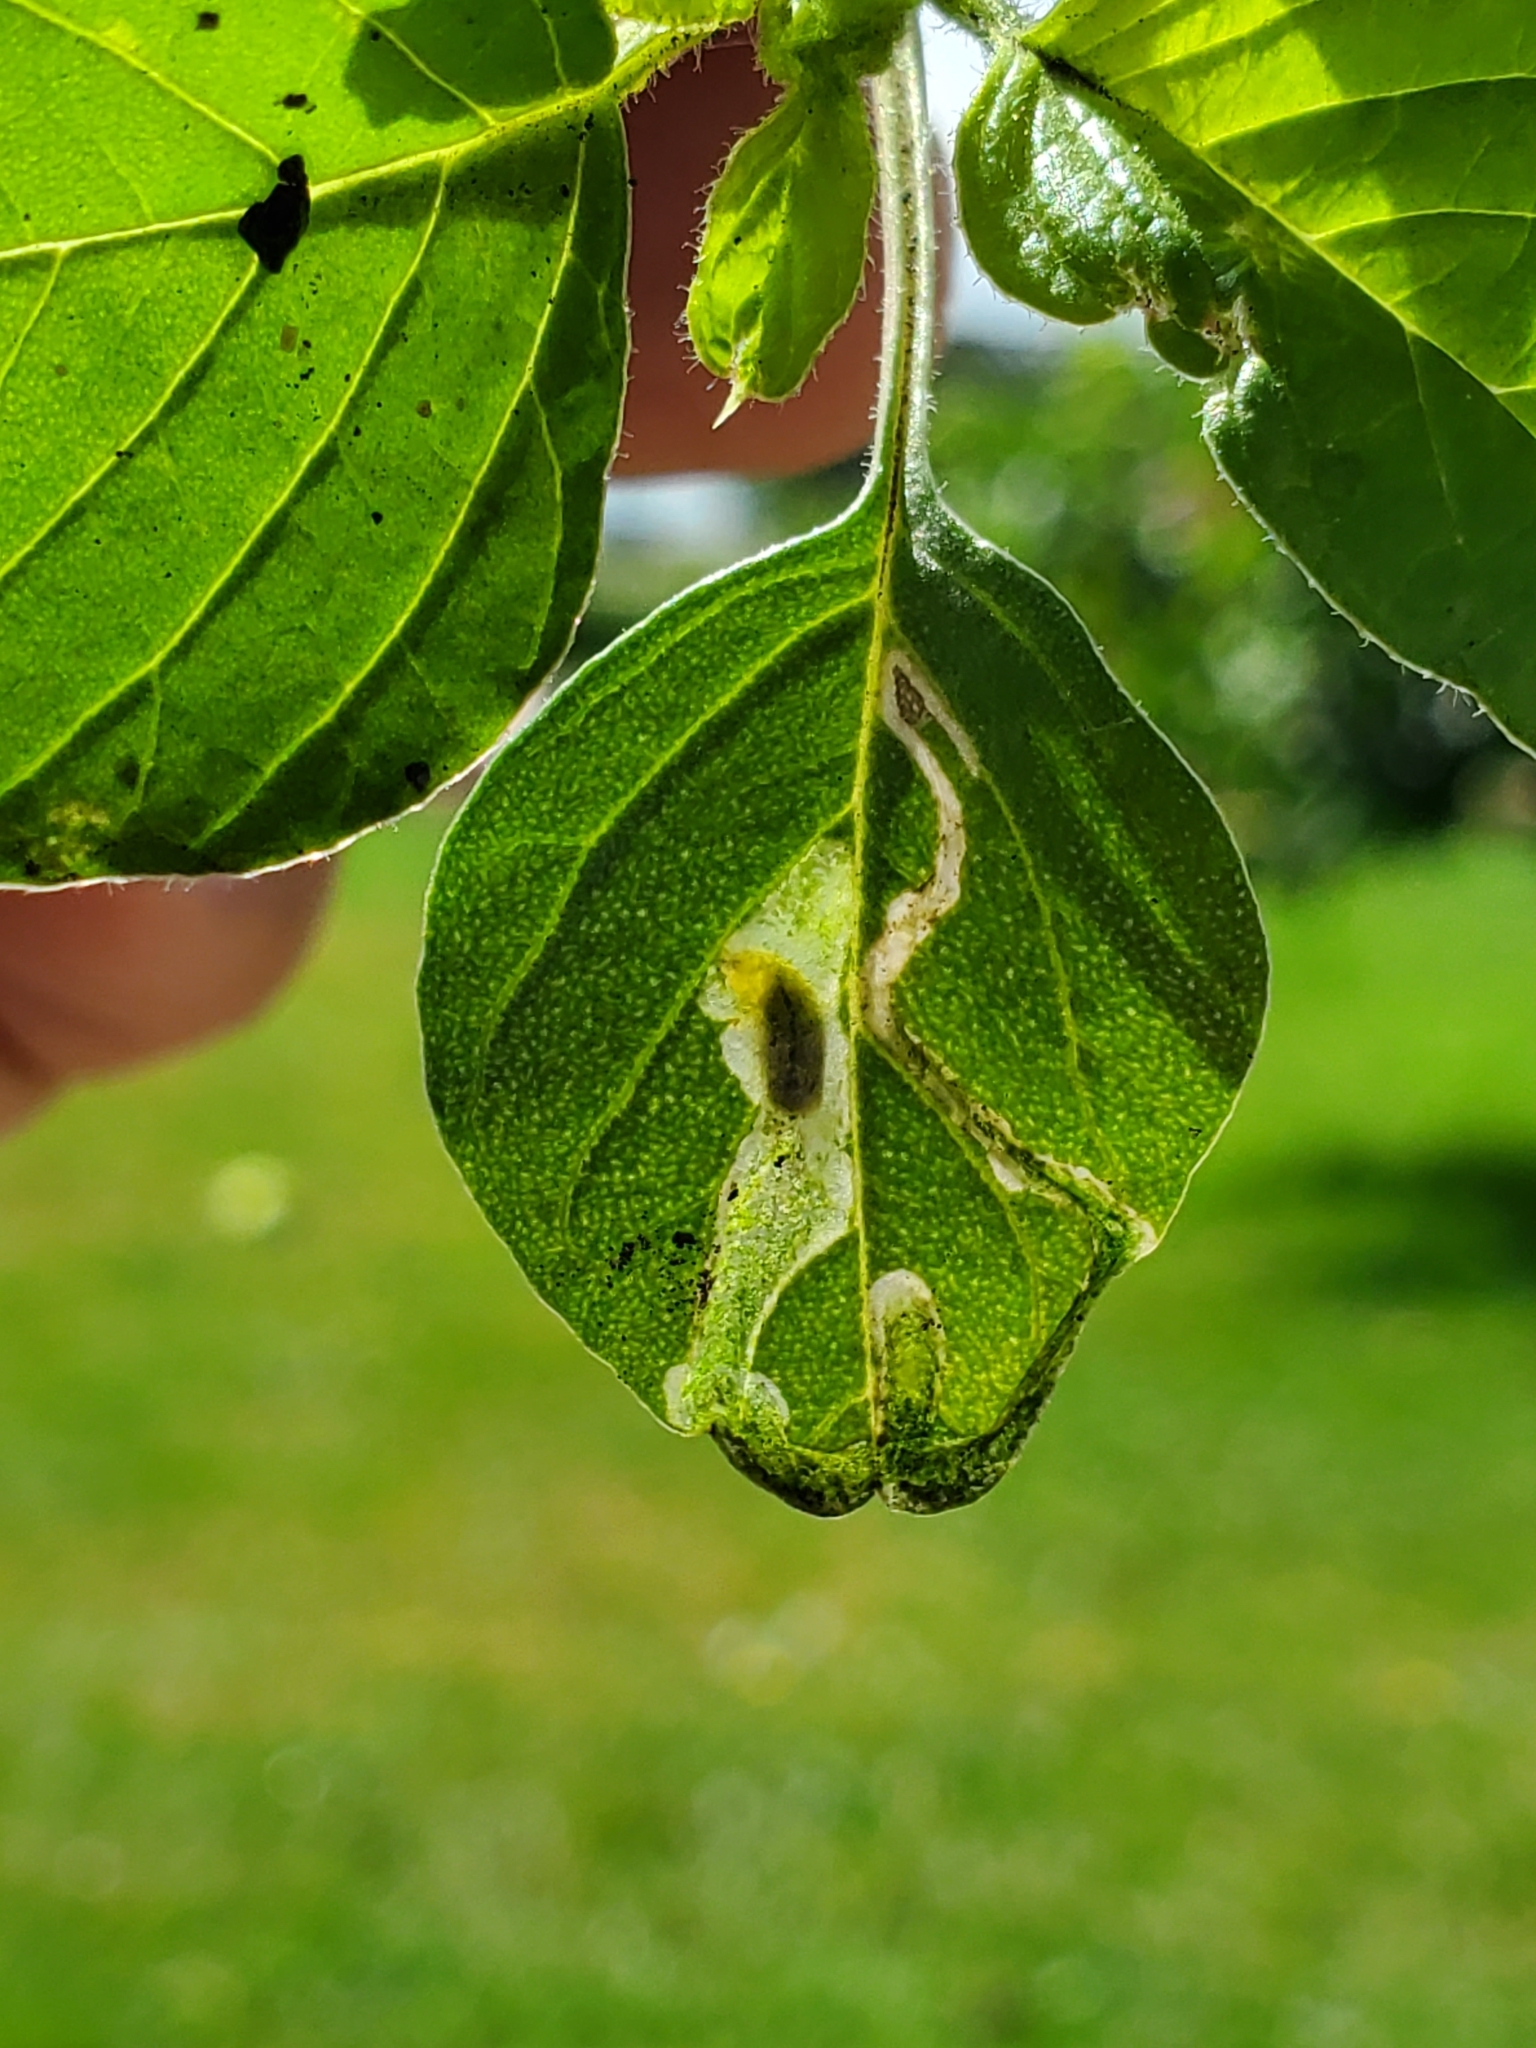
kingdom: Animalia
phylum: Arthropoda
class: Insecta
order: Diptera
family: Anthomyiidae
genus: Pegomya
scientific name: Pegomya wygodzinskyi
